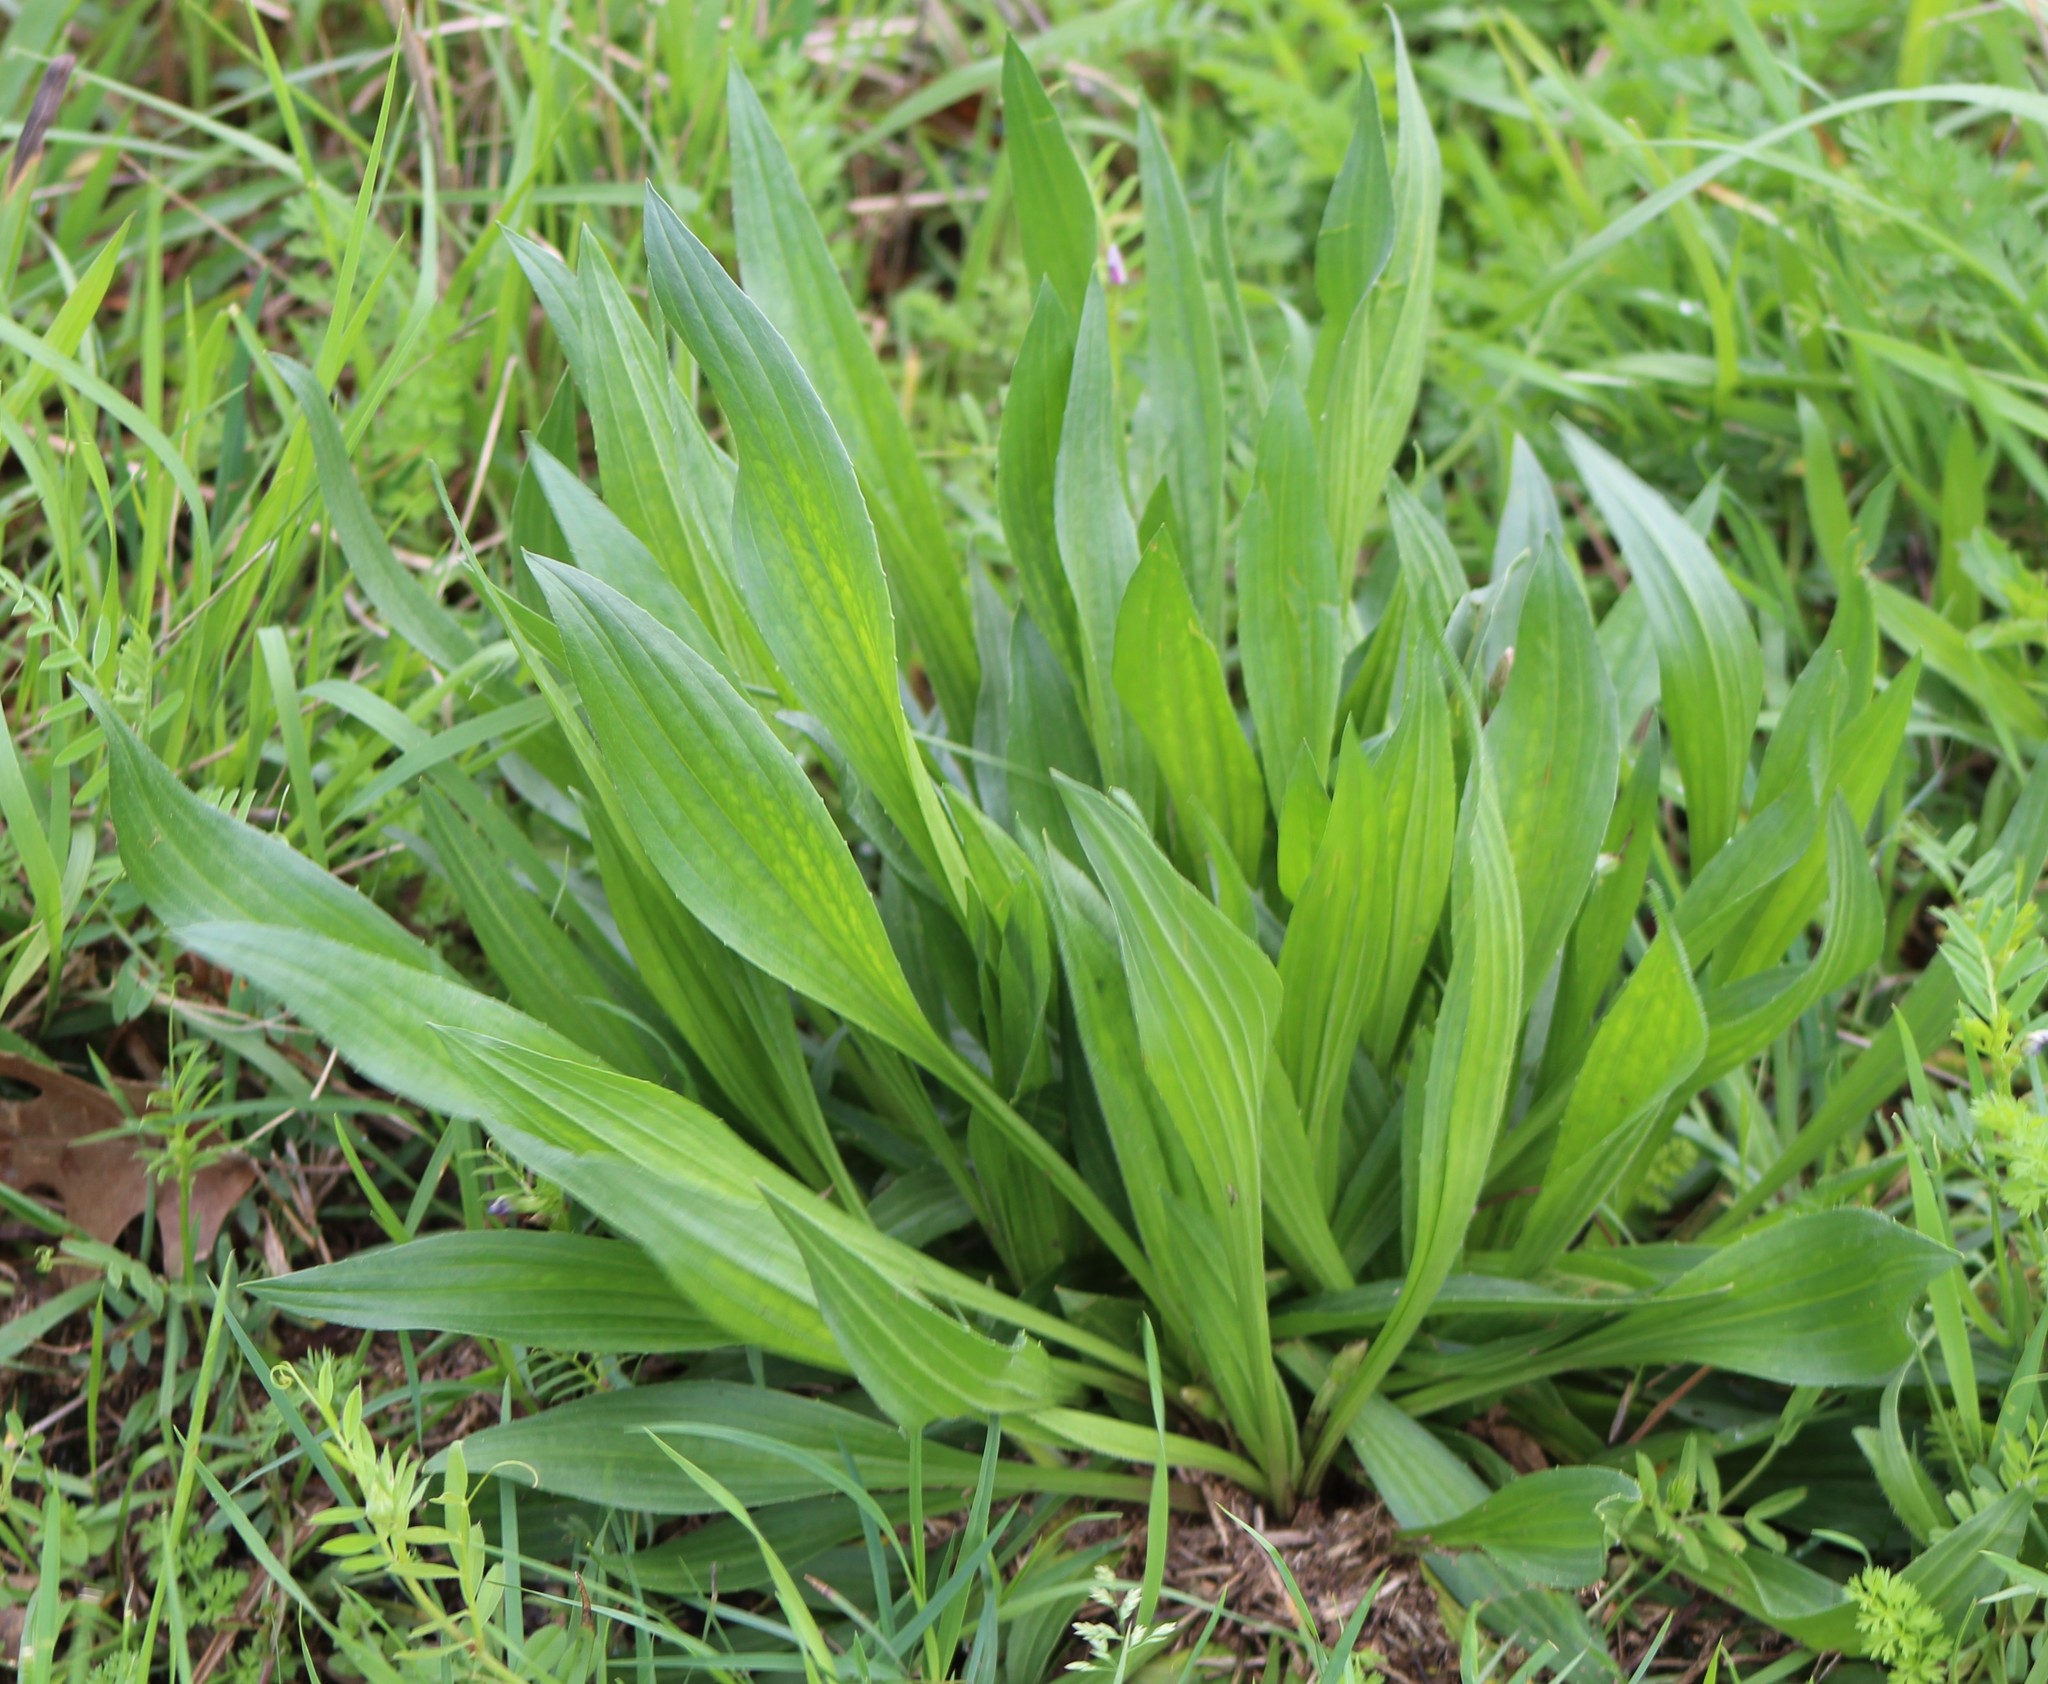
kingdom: Plantae
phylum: Tracheophyta
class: Magnoliopsida
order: Lamiales
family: Plantaginaceae
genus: Plantago
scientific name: Plantago lanceolata
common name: Ribwort plantain
